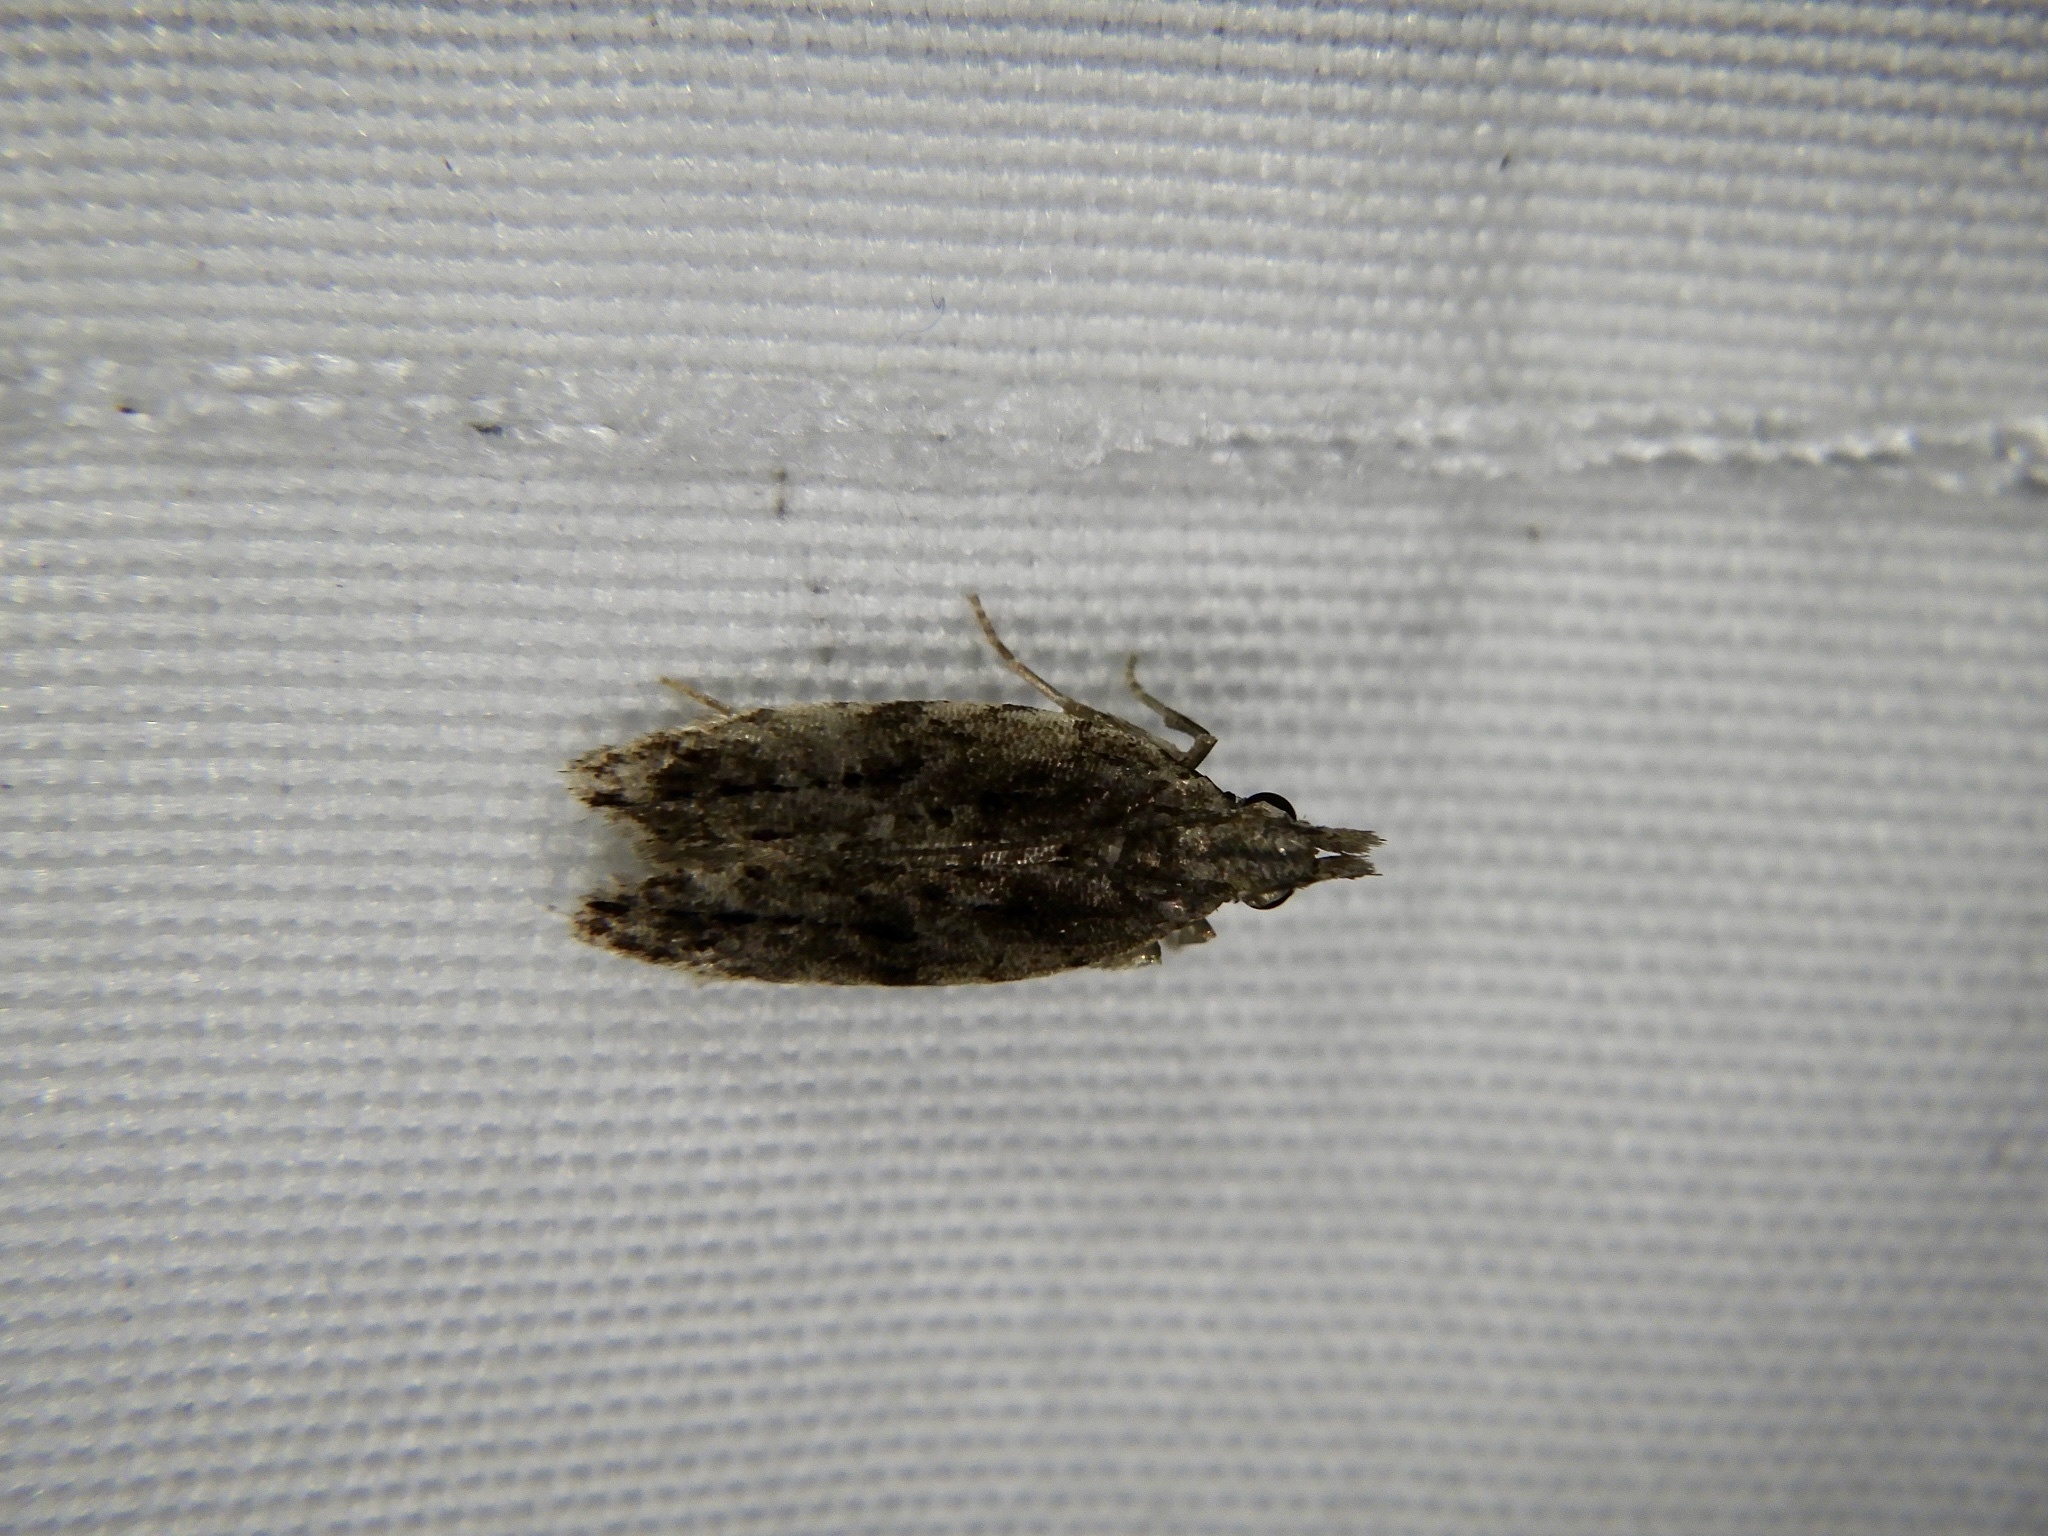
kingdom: Animalia
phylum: Arthropoda
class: Insecta
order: Lepidoptera
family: Gelechiidae
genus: Faristenia
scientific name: Faristenia quercivora
